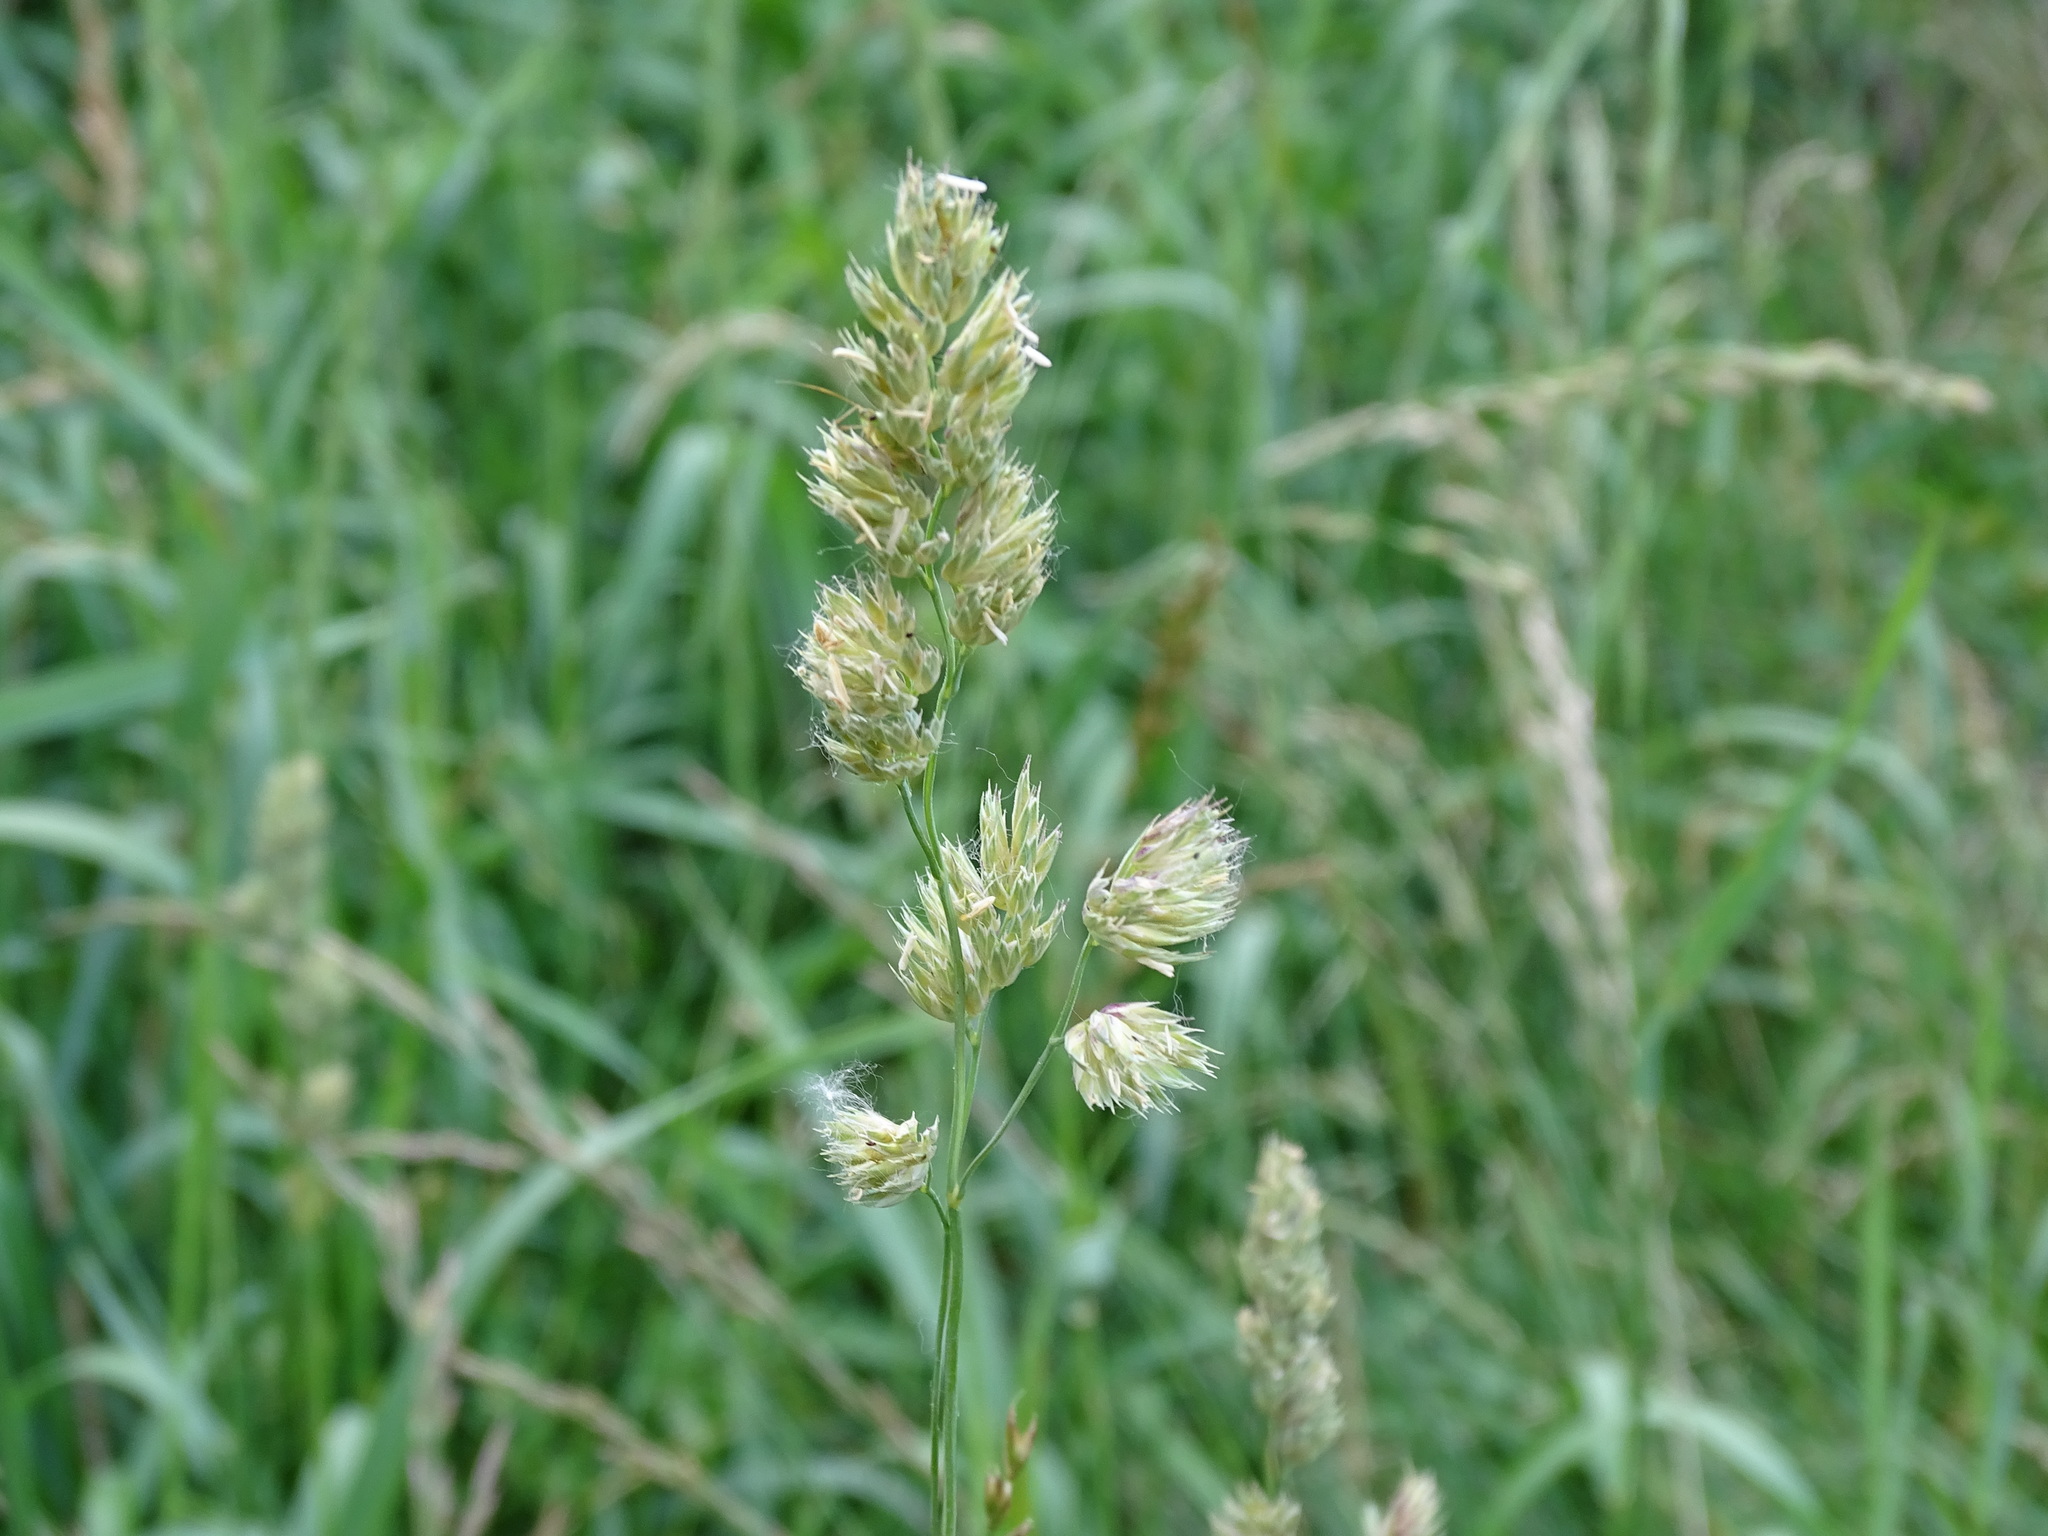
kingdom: Plantae
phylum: Tracheophyta
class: Liliopsida
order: Poales
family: Poaceae
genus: Dactylis
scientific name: Dactylis glomerata
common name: Orchardgrass
